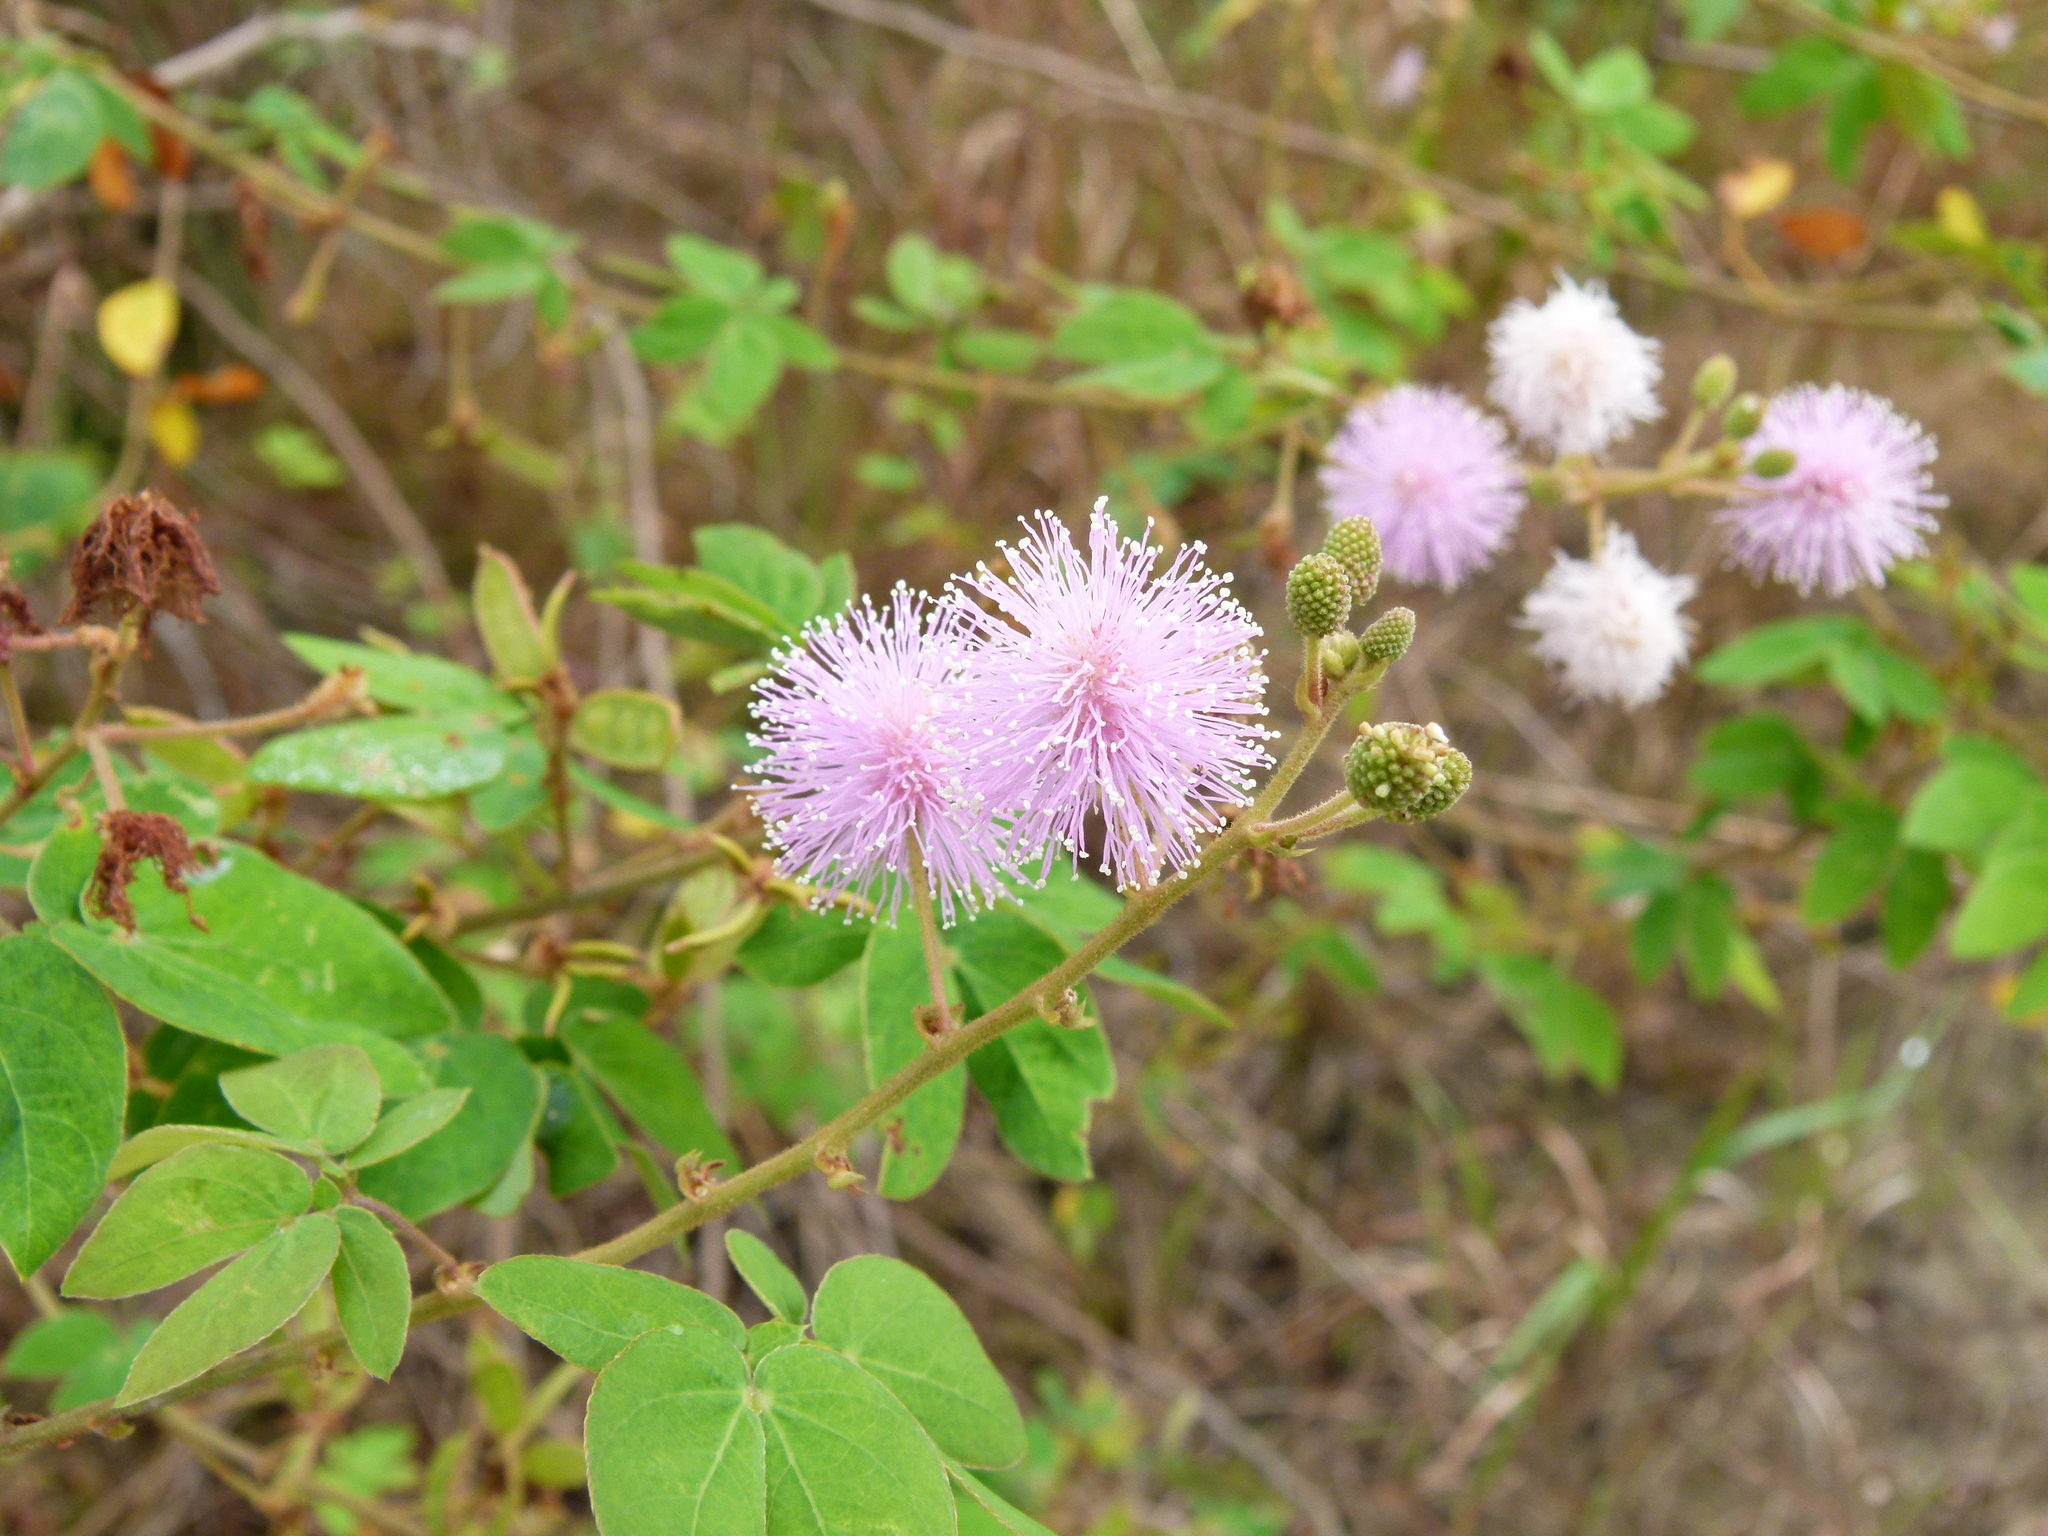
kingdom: Plantae
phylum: Tracheophyta
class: Magnoliopsida
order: Fabales
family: Fabaceae
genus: Mimosa
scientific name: Mimosa albida
